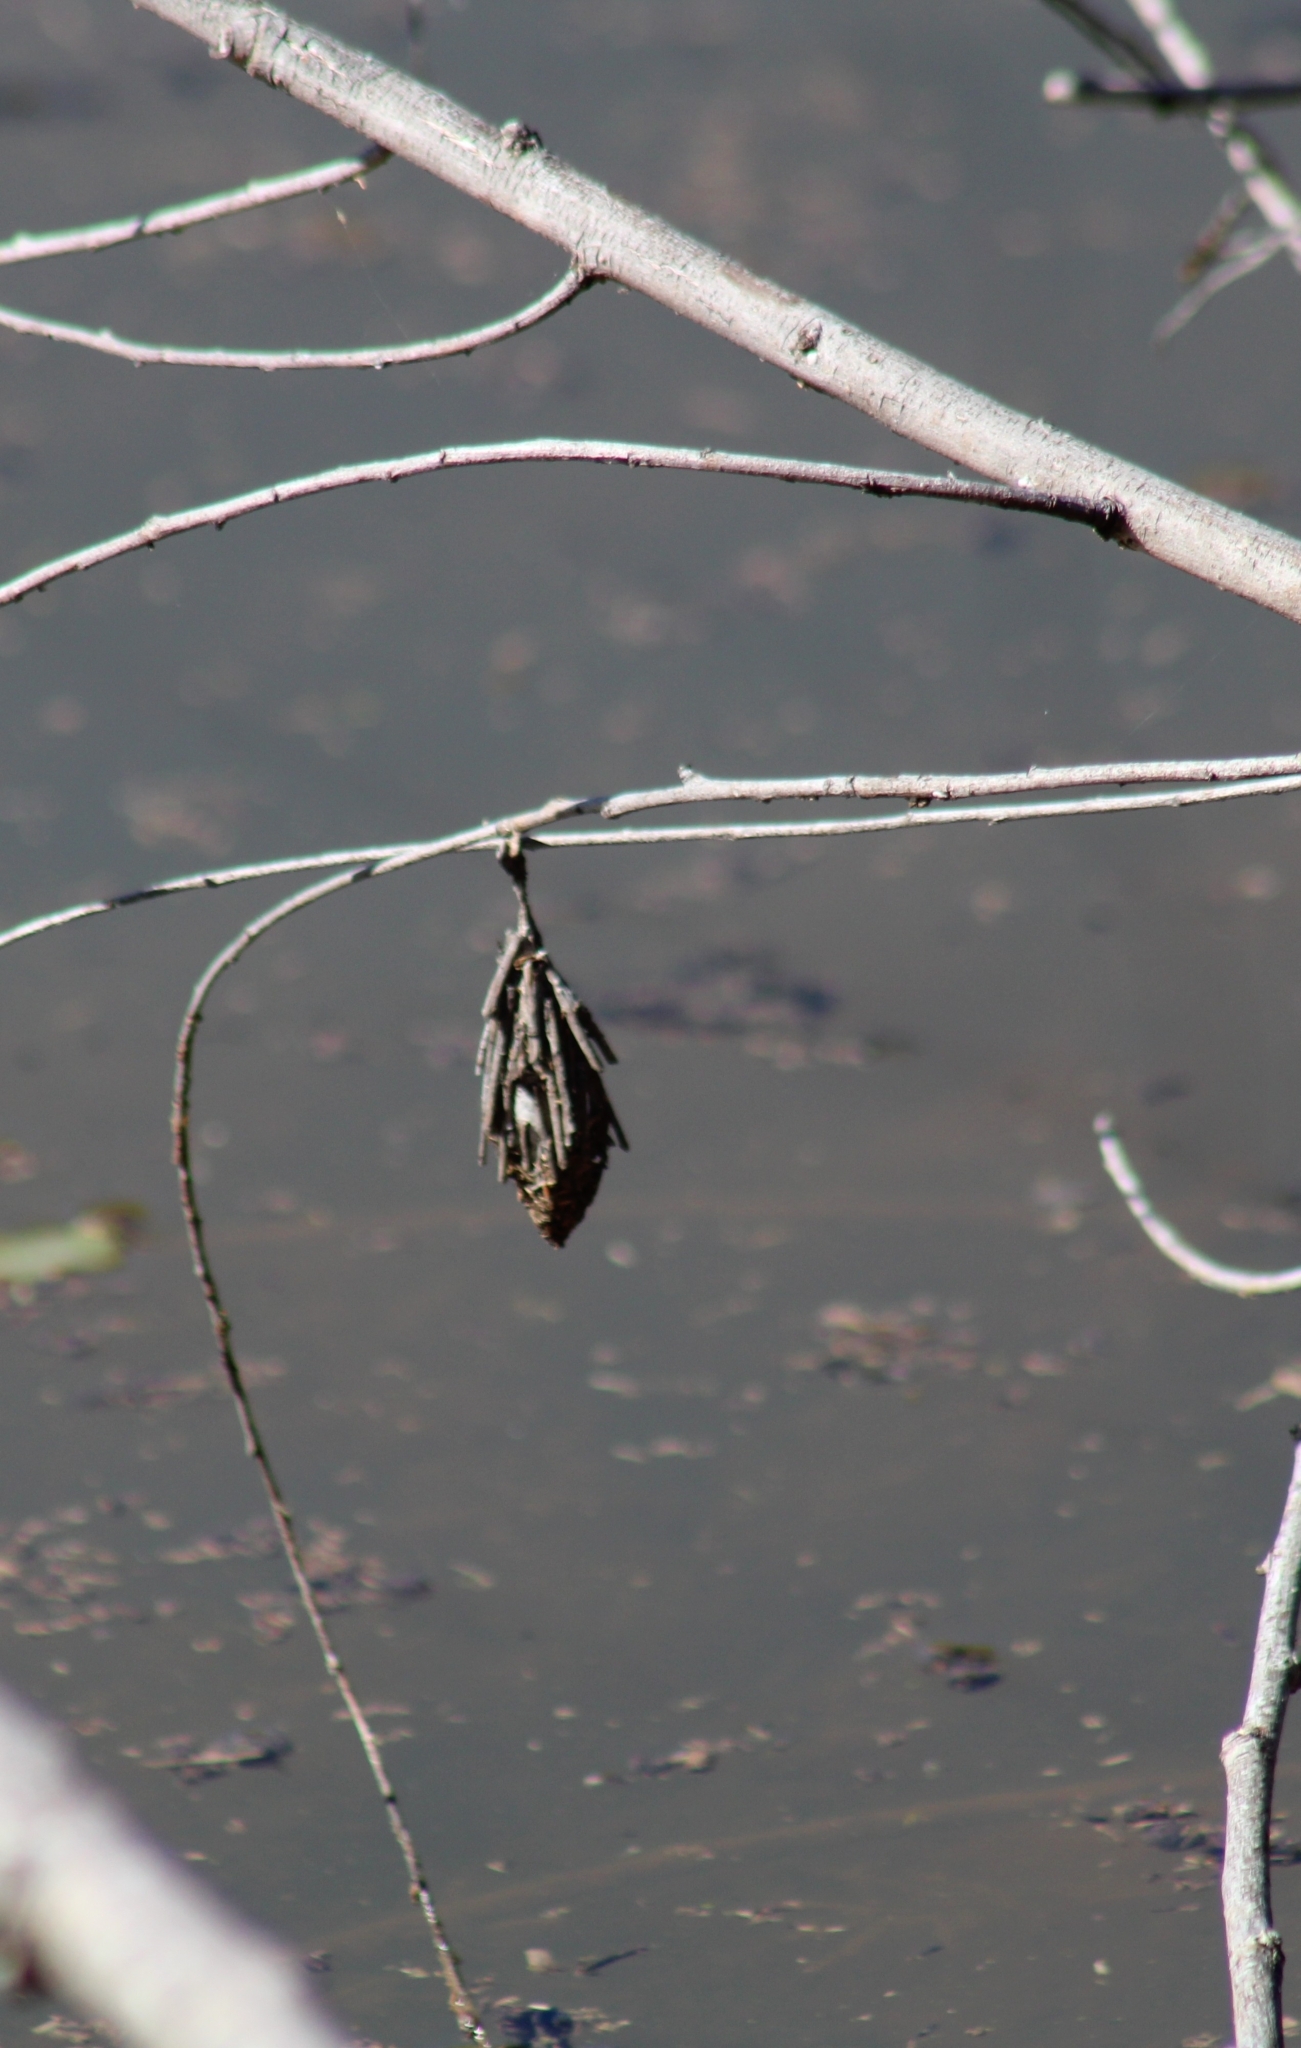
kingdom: Animalia
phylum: Arthropoda
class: Insecta
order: Lepidoptera
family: Psychidae
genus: Thyridopteryx
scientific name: Thyridopteryx ephemeraeformis
